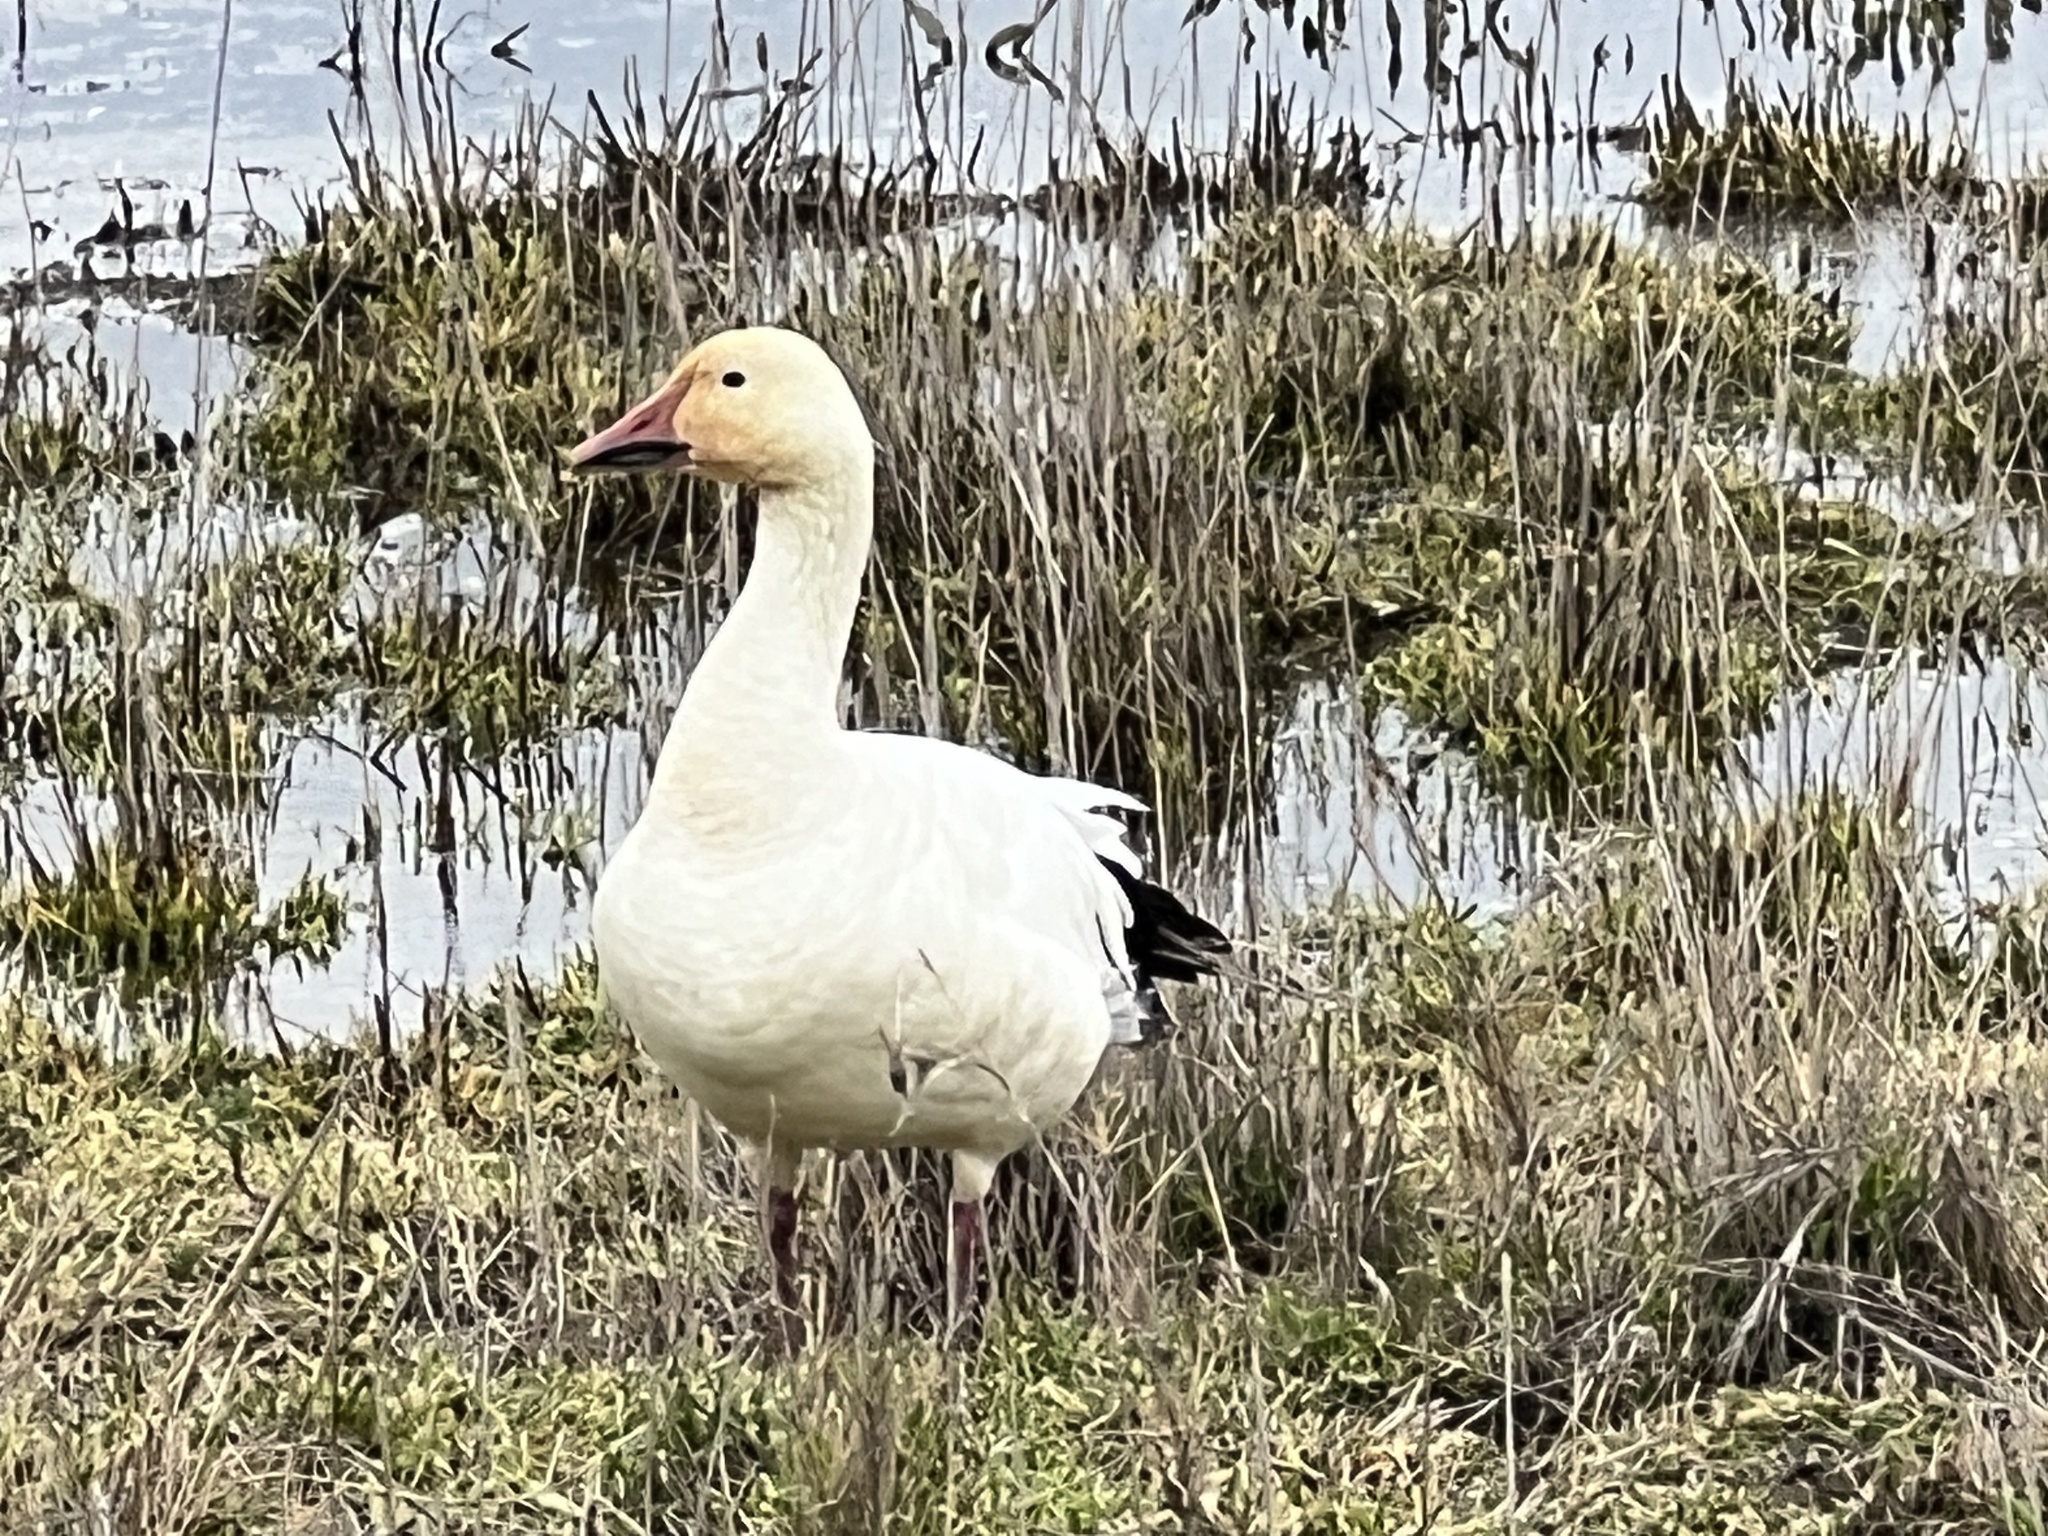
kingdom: Animalia
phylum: Chordata
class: Aves
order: Anseriformes
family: Anatidae
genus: Anser
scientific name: Anser caerulescens
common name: Snow goose
